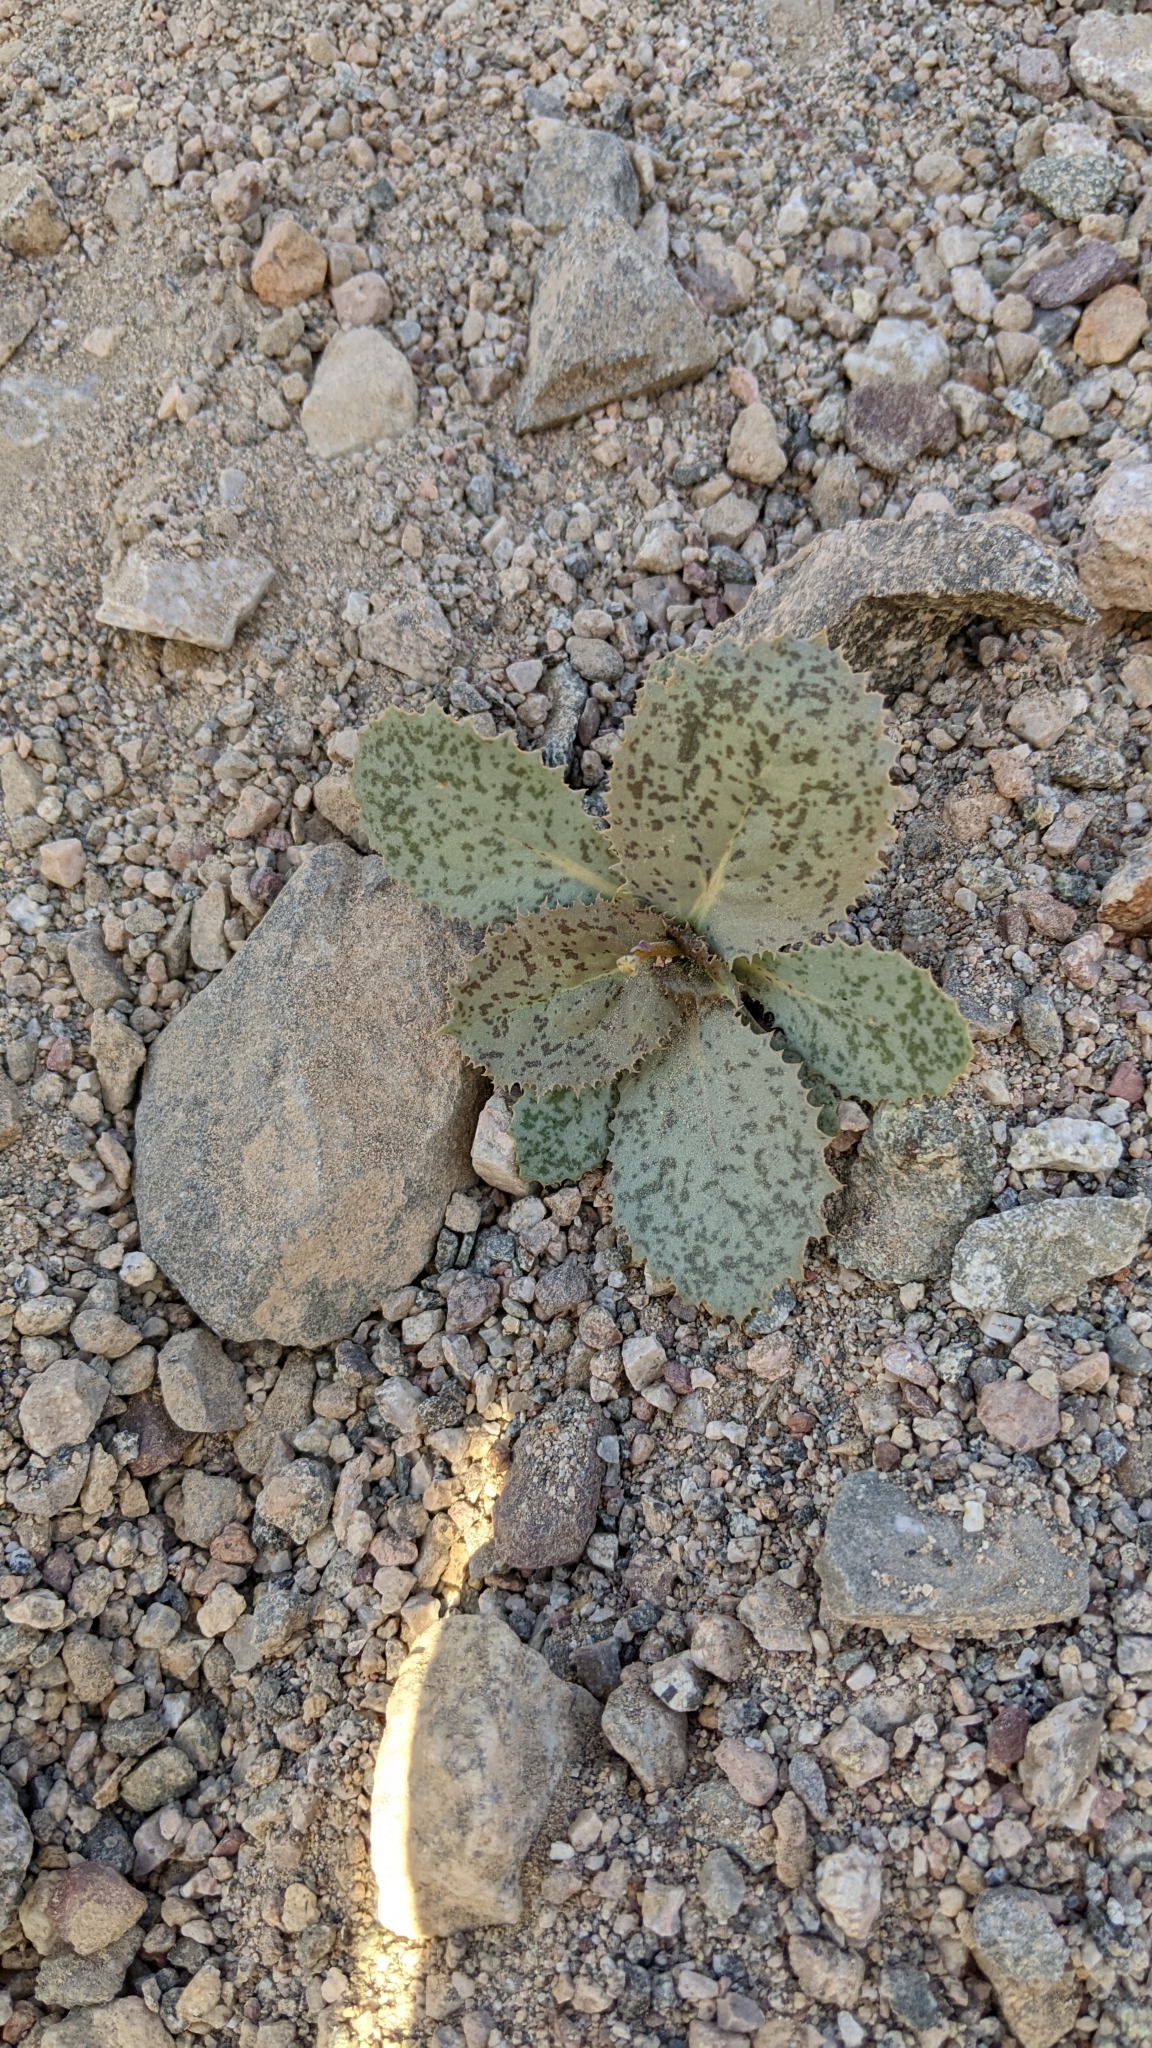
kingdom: Plantae
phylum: Tracheophyta
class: Magnoliopsida
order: Asterales
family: Asteraceae
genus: Atrichoseris
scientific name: Atrichoseris platyphylla
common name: Tobaccoweed
